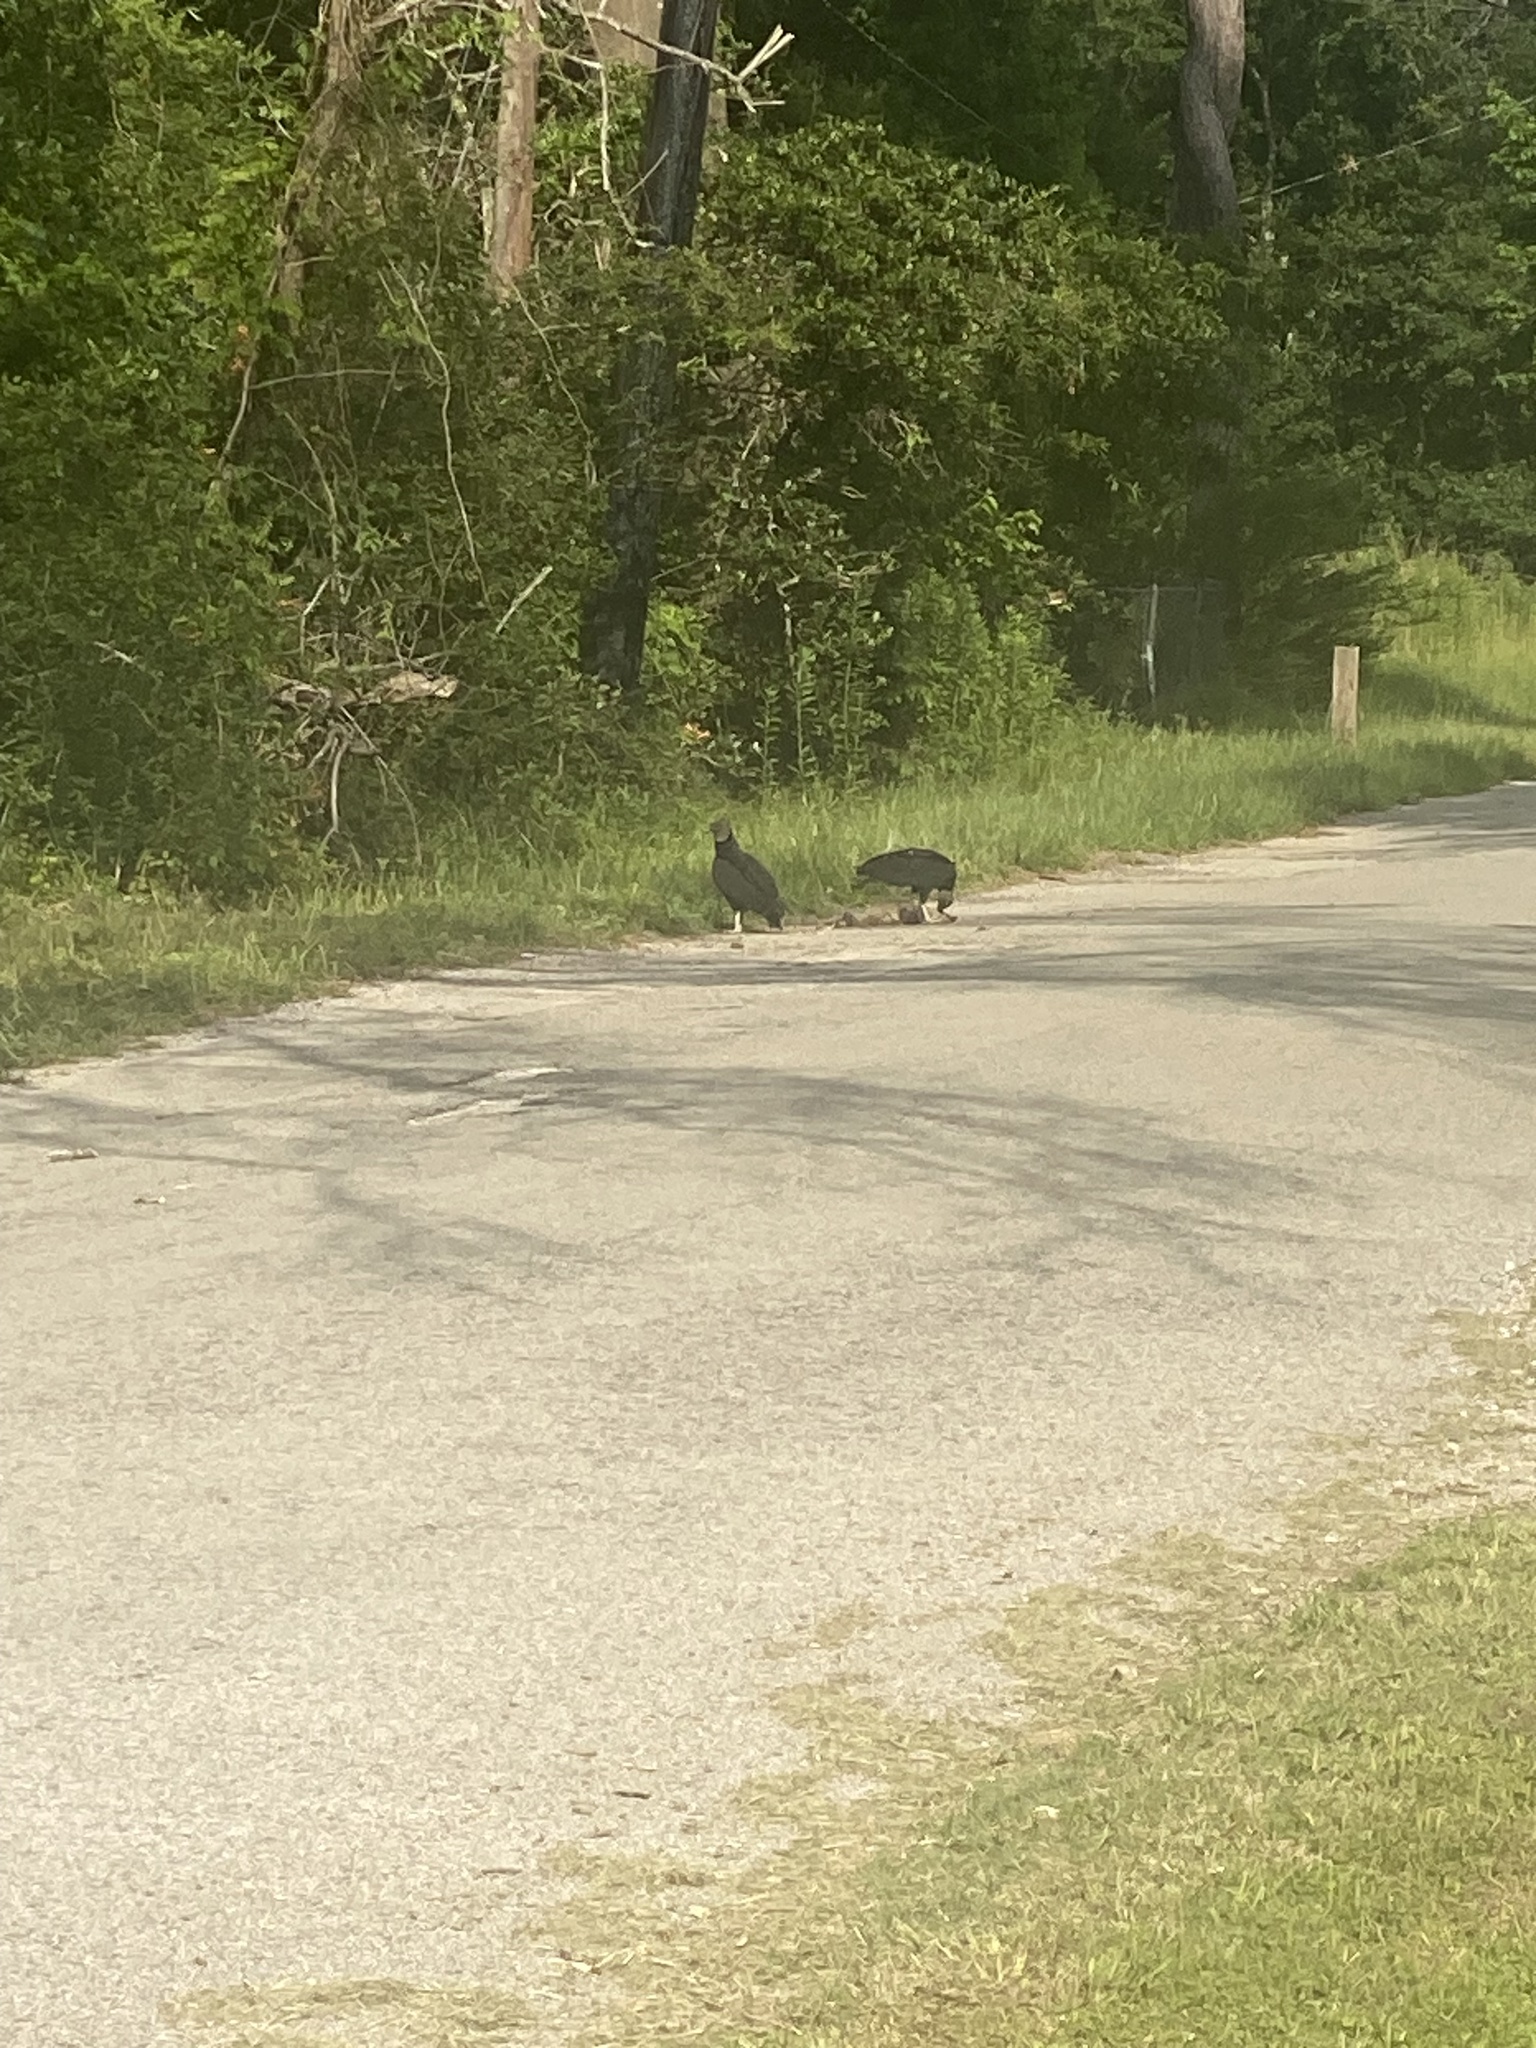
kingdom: Animalia
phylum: Chordata
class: Aves
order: Accipitriformes
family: Cathartidae
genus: Coragyps
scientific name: Coragyps atratus
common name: Black vulture
